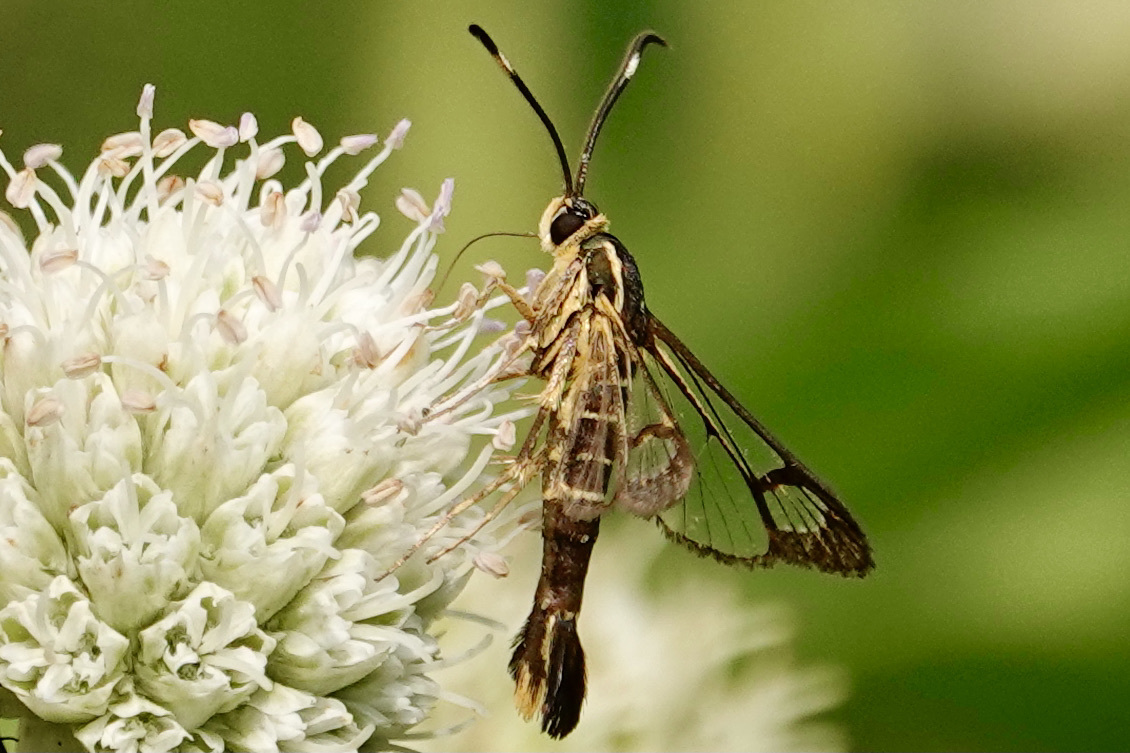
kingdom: Animalia
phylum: Arthropoda
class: Insecta
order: Lepidoptera
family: Sesiidae
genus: Carmenta
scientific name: Carmenta bassiformis
